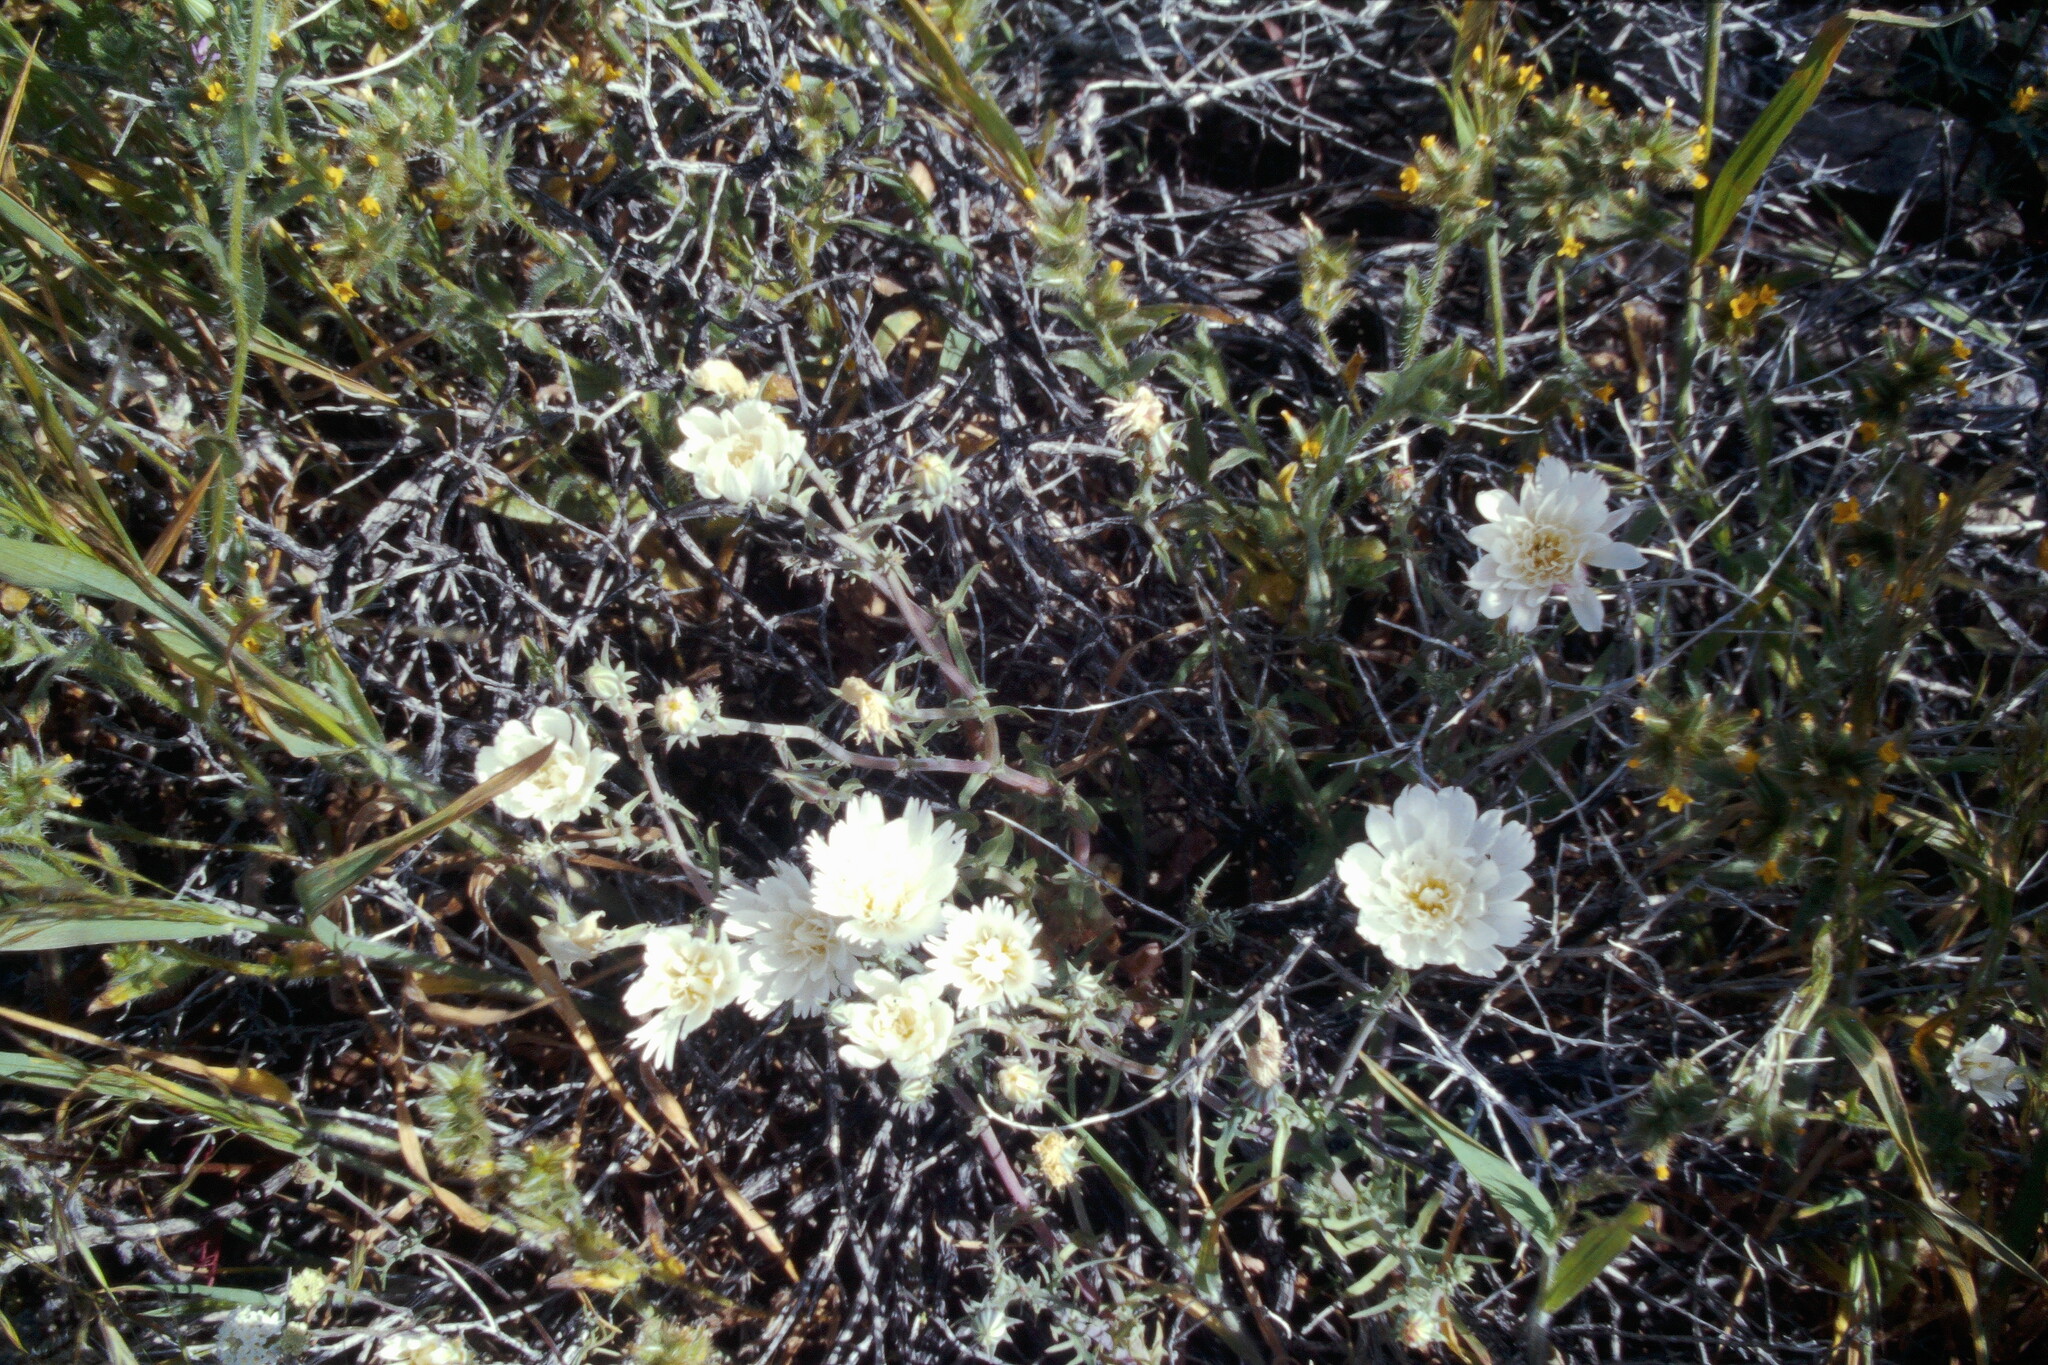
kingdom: Plantae
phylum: Tracheophyta
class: Magnoliopsida
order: Asterales
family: Asteraceae
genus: Rafinesquia
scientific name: Rafinesquia neomexicana
